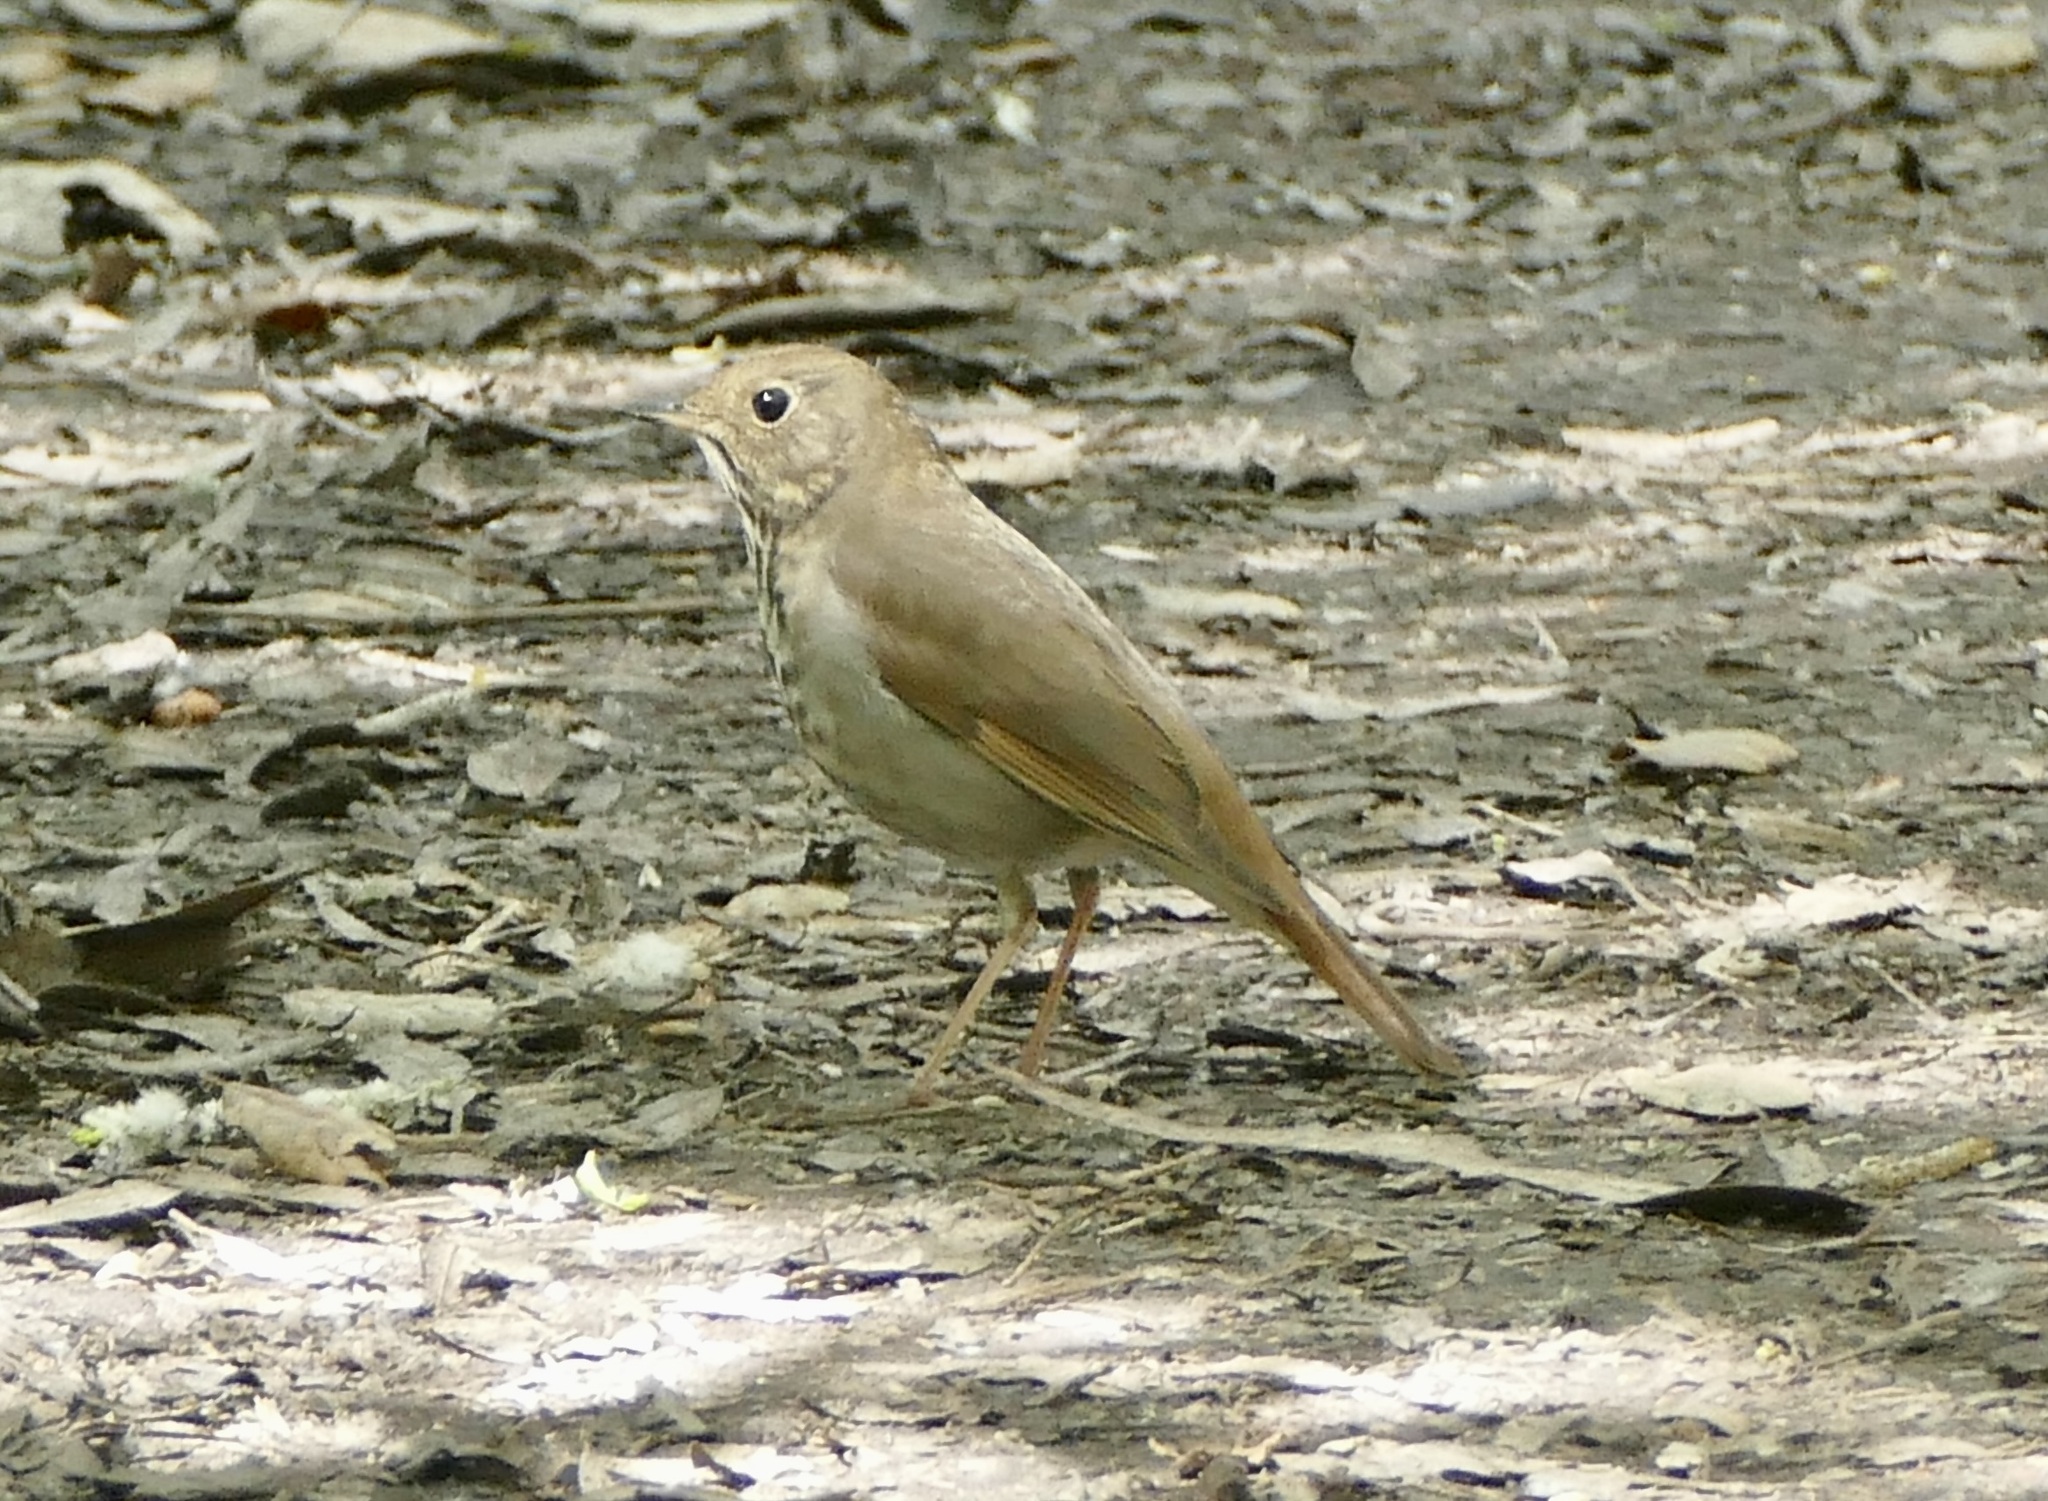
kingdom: Animalia
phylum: Chordata
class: Aves
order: Passeriformes
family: Turdidae
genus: Catharus
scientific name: Catharus guttatus
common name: Hermit thrush
